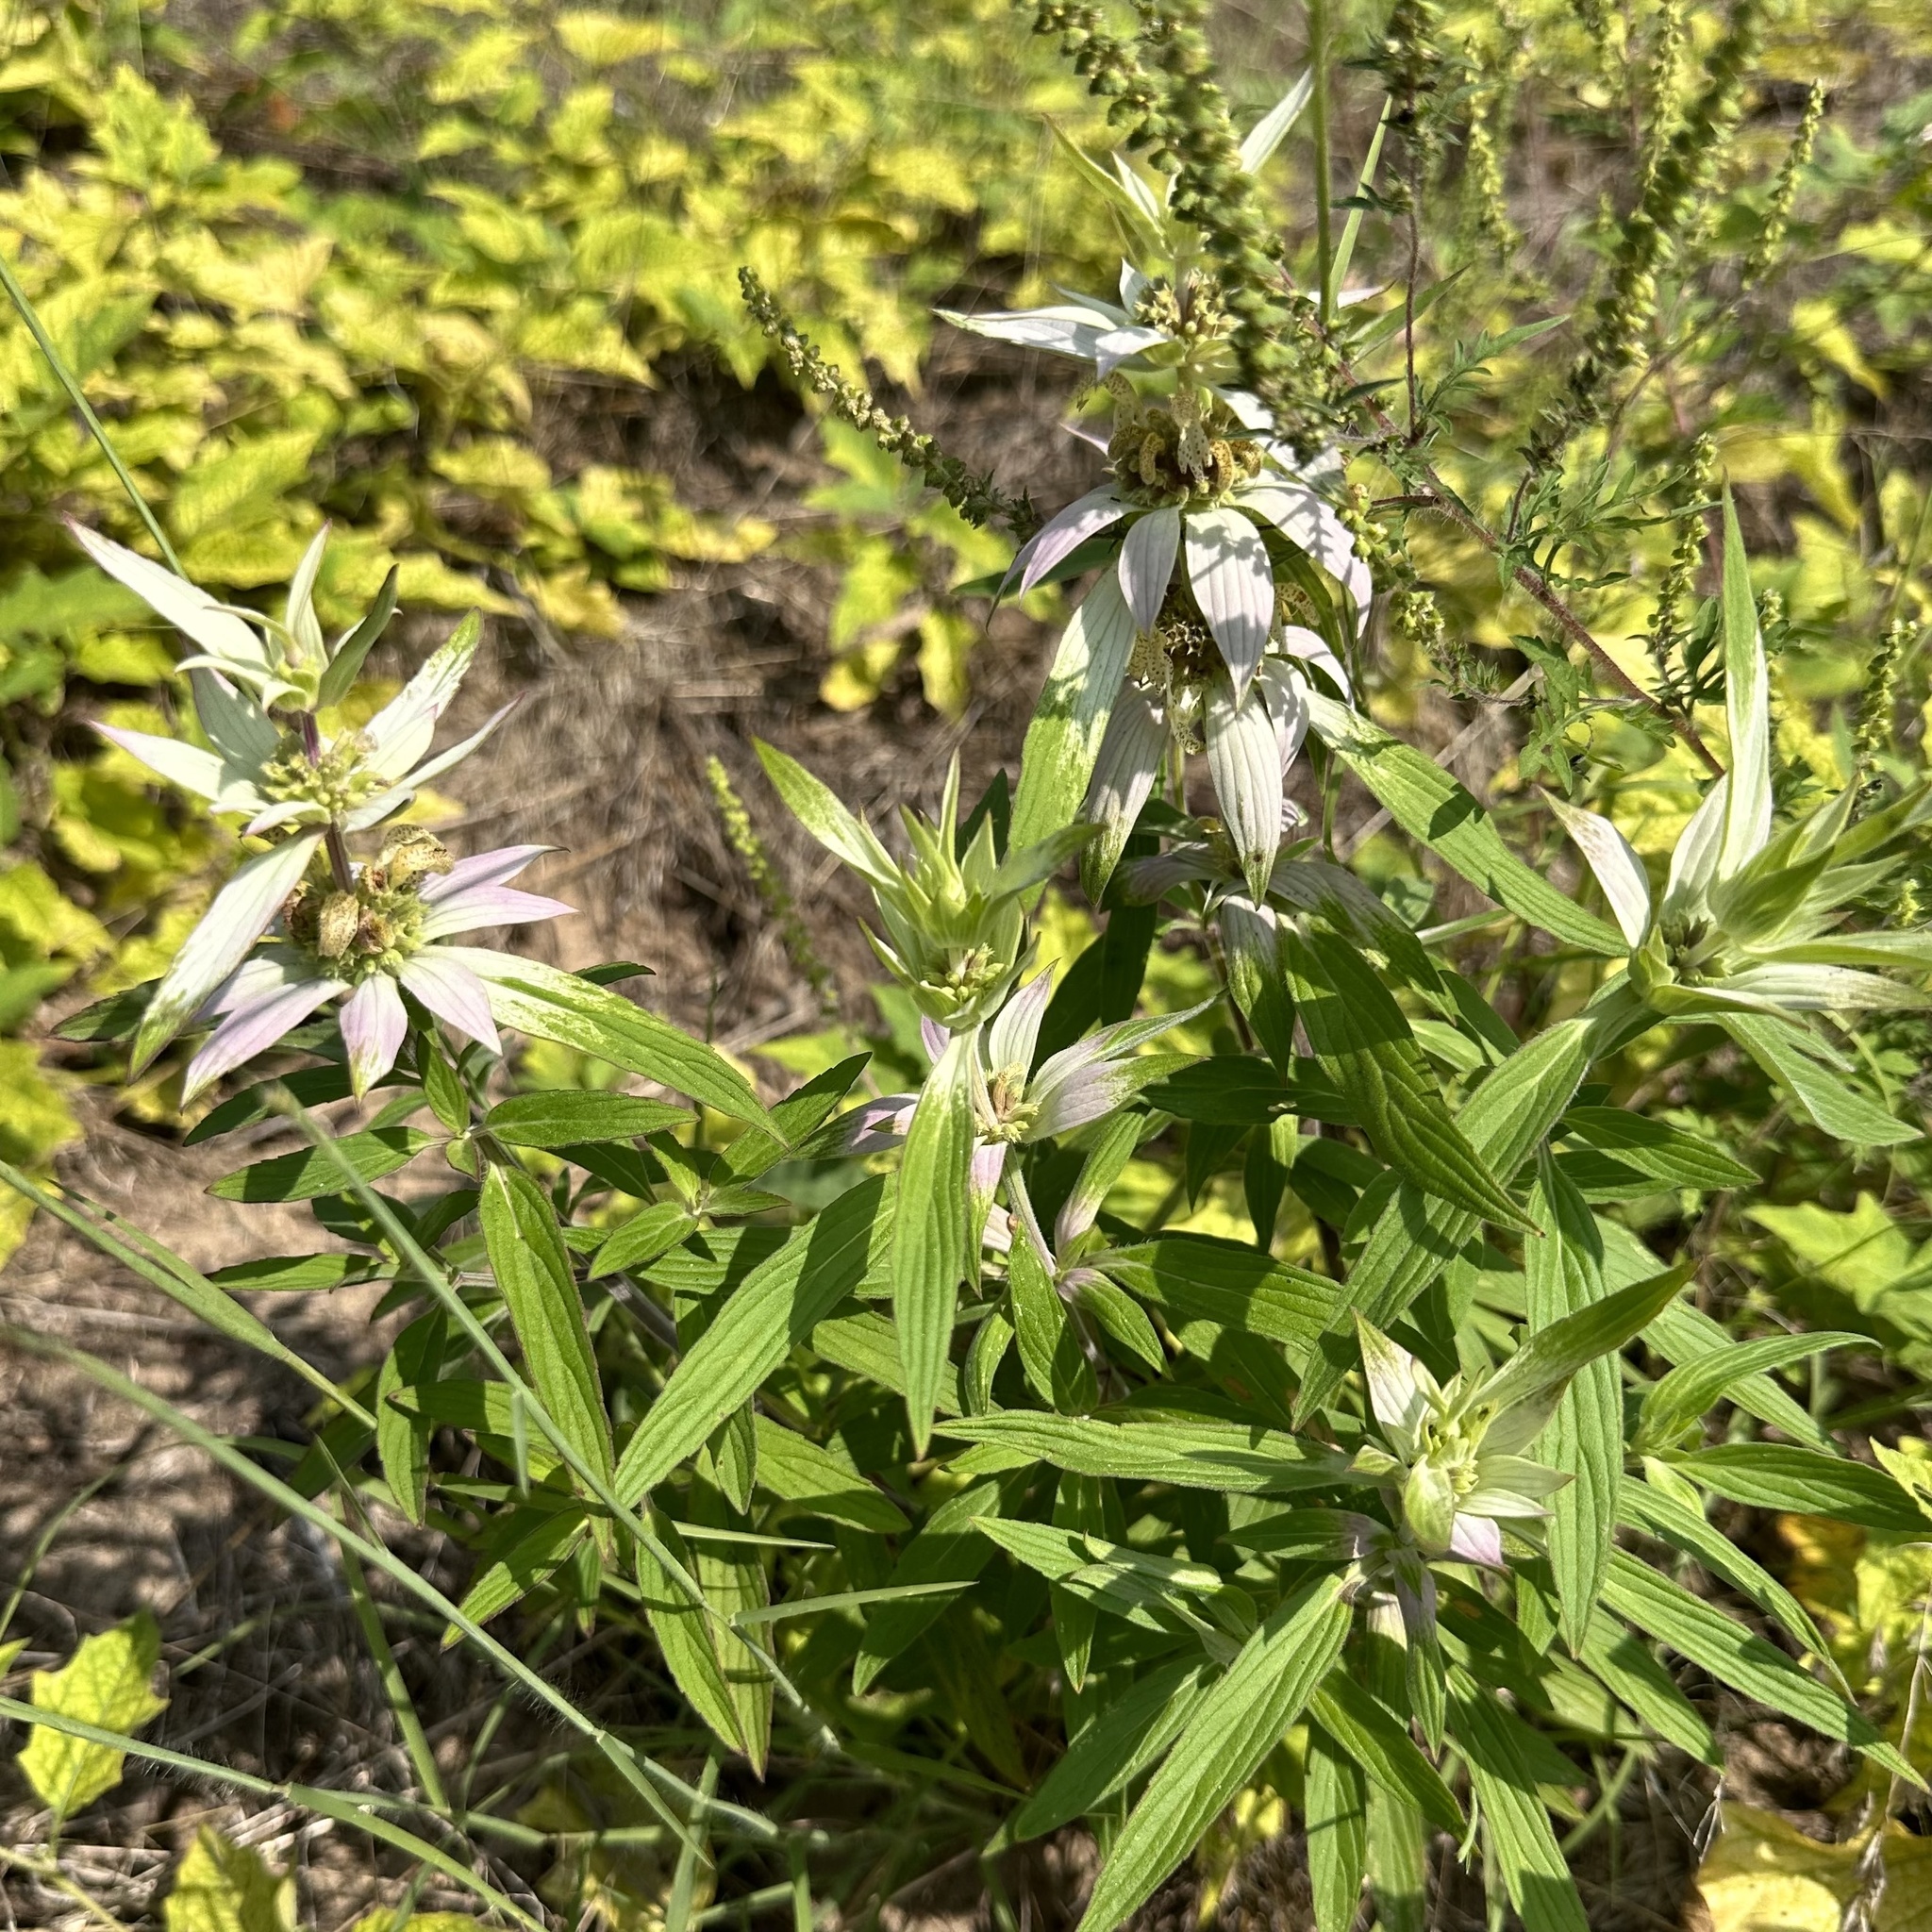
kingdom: Plantae
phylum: Tracheophyta
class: Magnoliopsida
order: Lamiales
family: Lamiaceae
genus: Monarda
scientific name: Monarda punctata
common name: Dotted monarda
